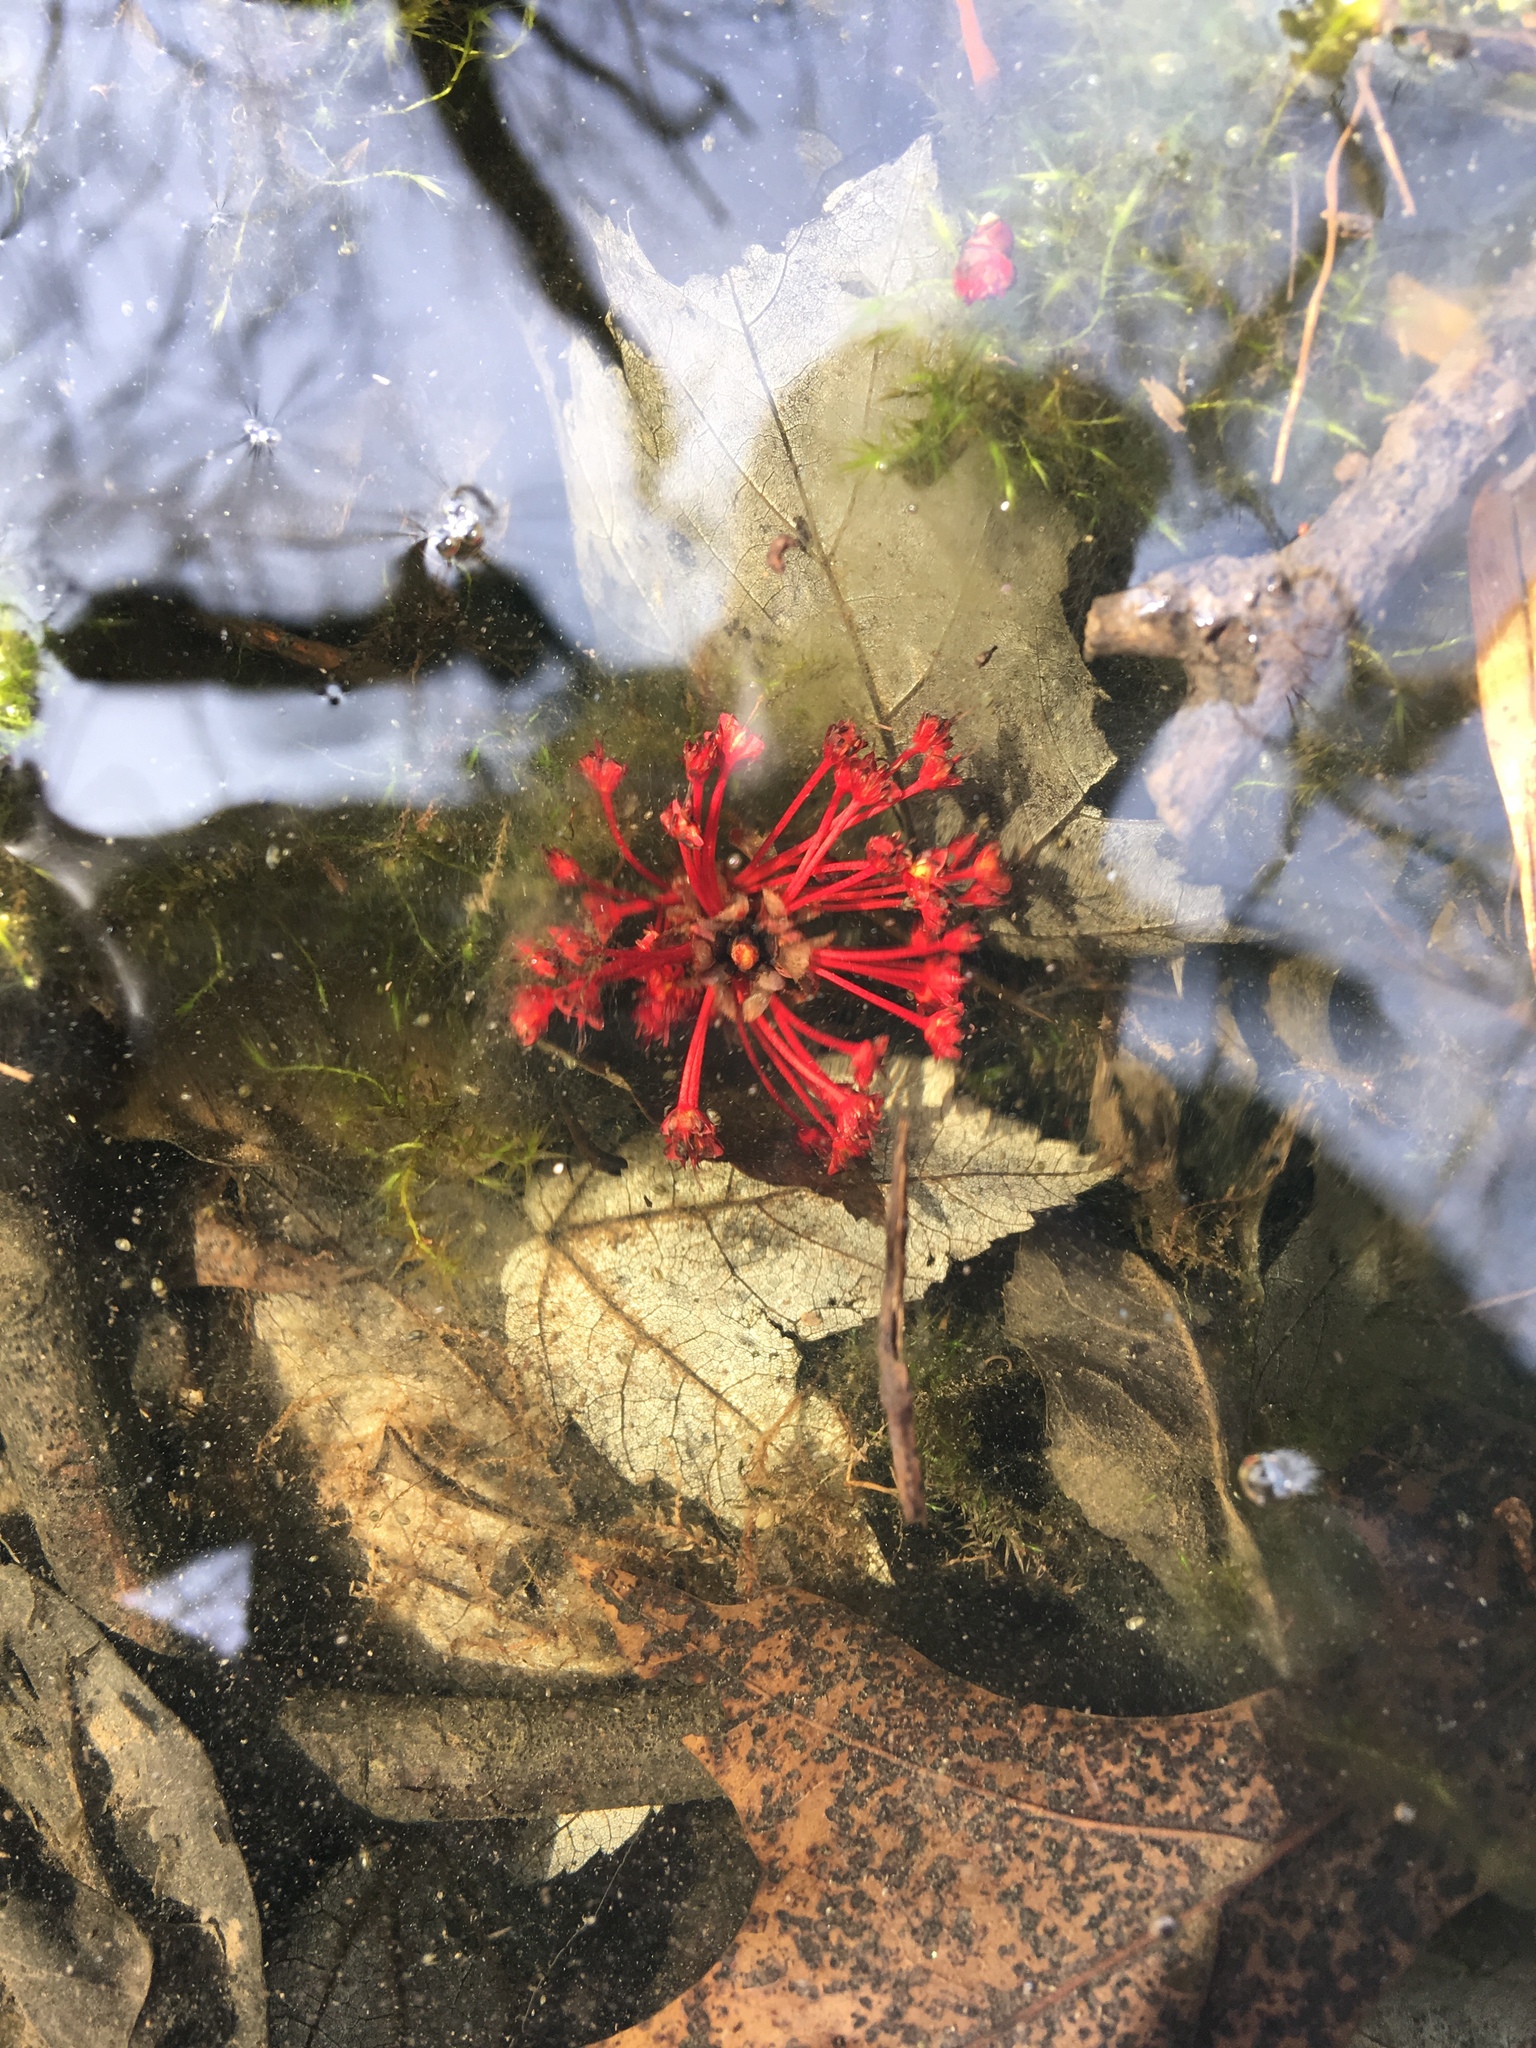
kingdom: Plantae
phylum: Tracheophyta
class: Magnoliopsida
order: Sapindales
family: Sapindaceae
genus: Acer
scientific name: Acer rubrum
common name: Red maple
